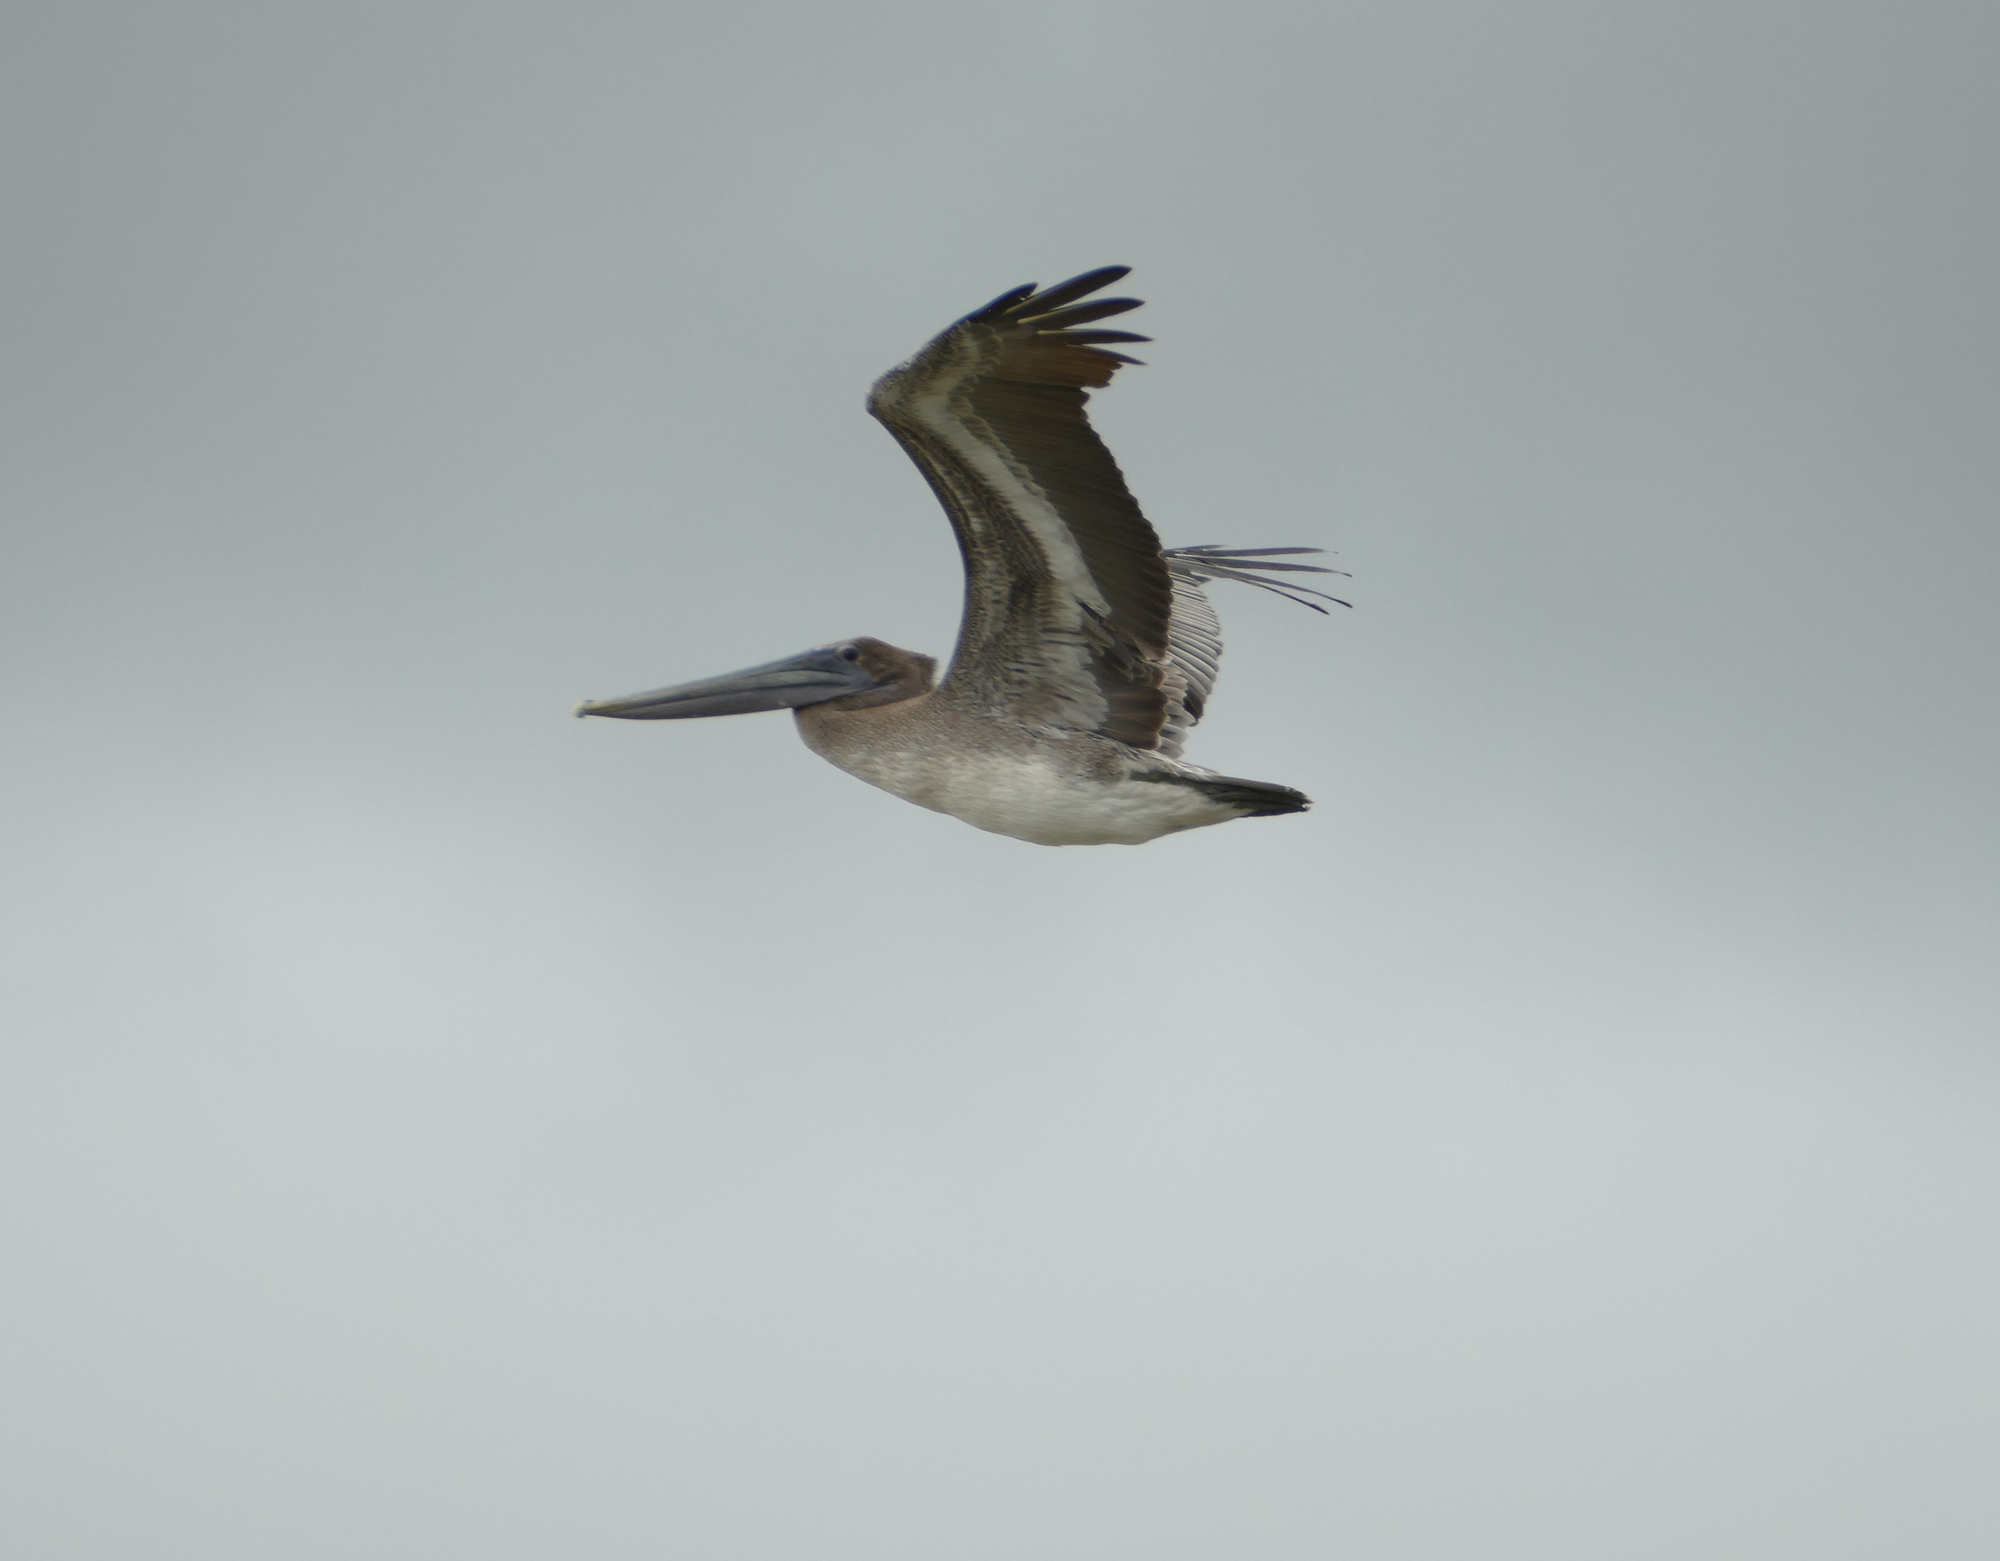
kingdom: Animalia
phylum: Chordata
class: Aves
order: Pelecaniformes
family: Pelecanidae
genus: Pelecanus
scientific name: Pelecanus occidentalis
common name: Brown pelican
